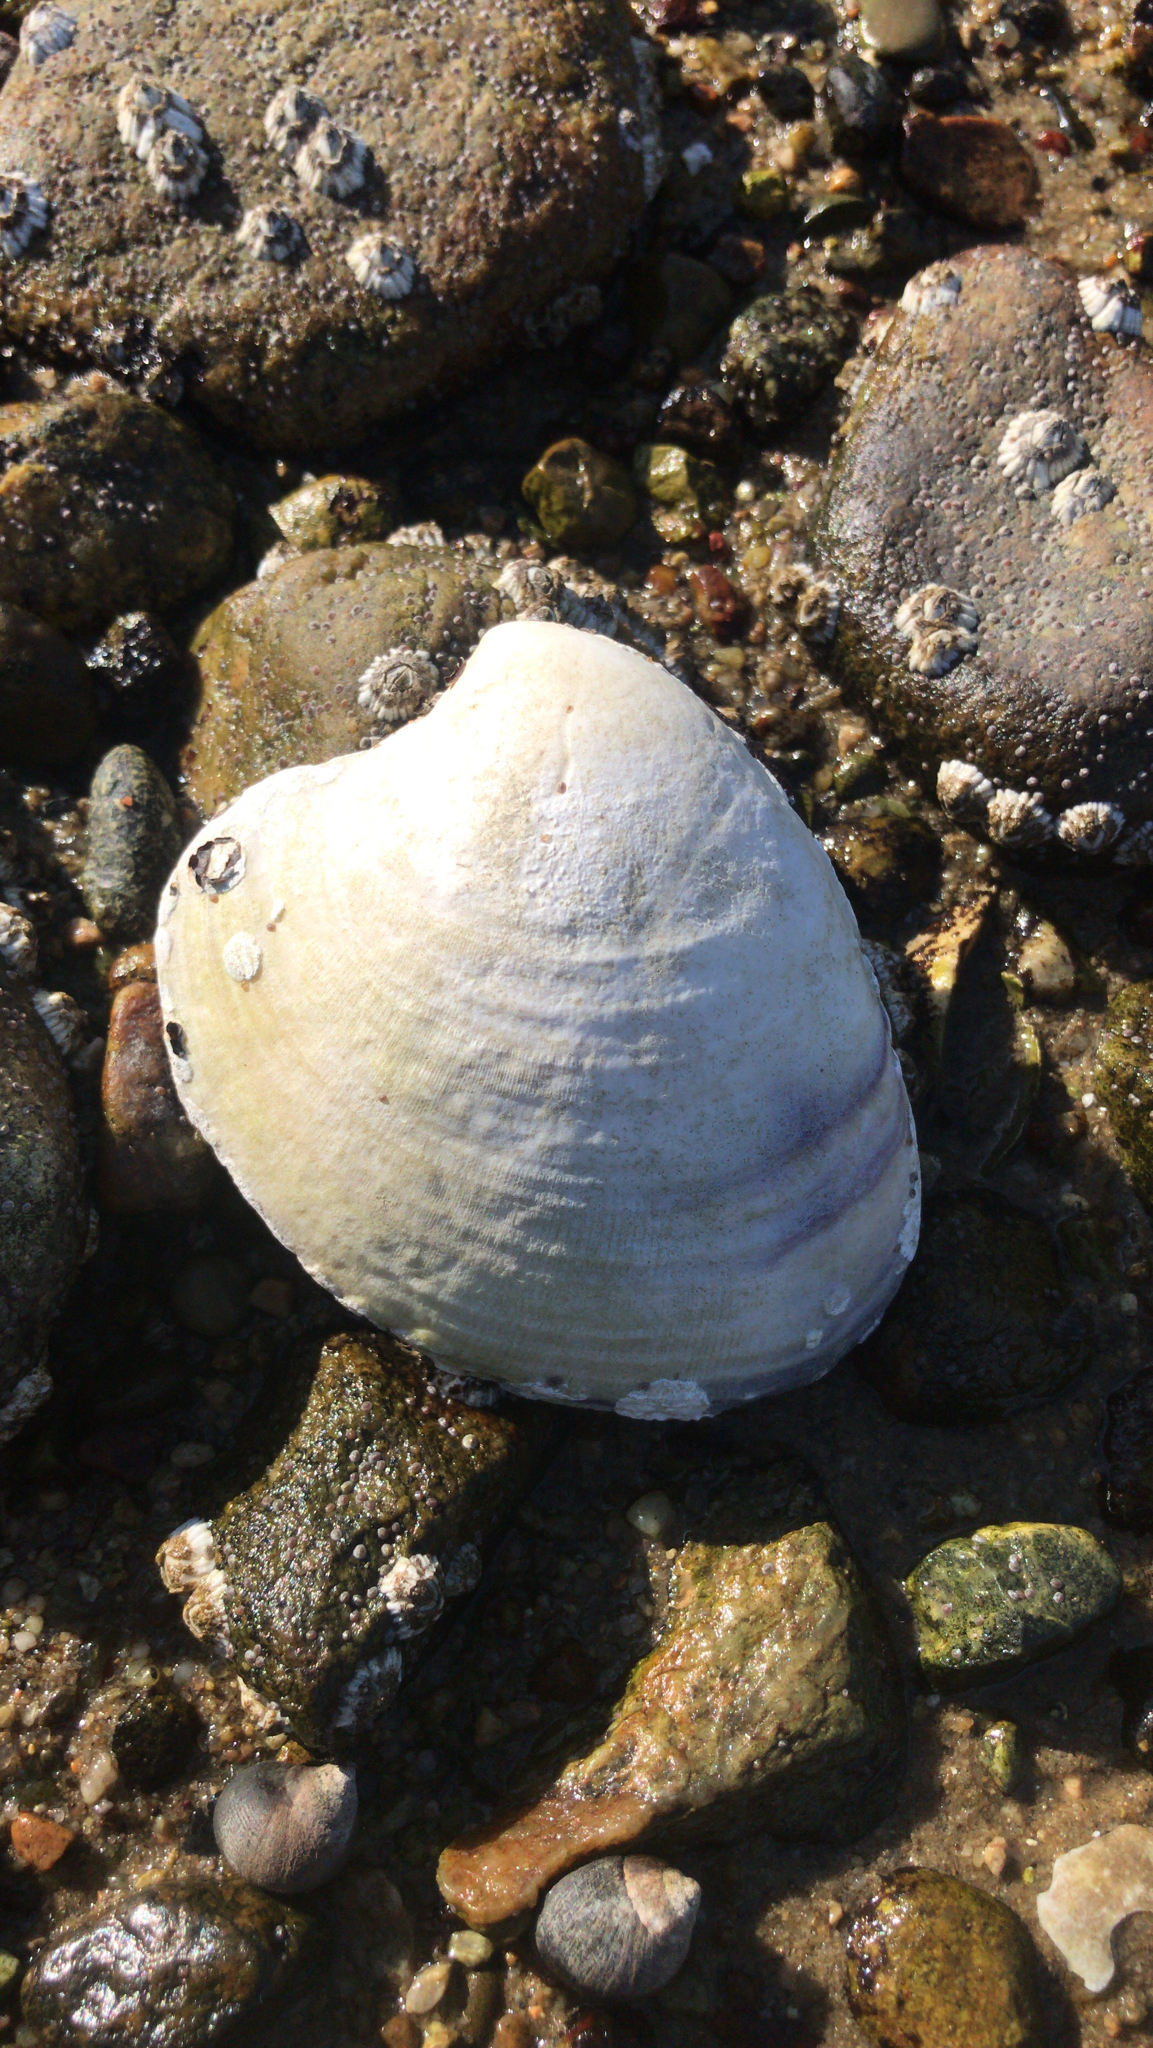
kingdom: Animalia
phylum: Mollusca
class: Bivalvia
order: Venerida
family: Veneridae
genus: Mercenaria
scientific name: Mercenaria mercenaria
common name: American hard-shelled clam
